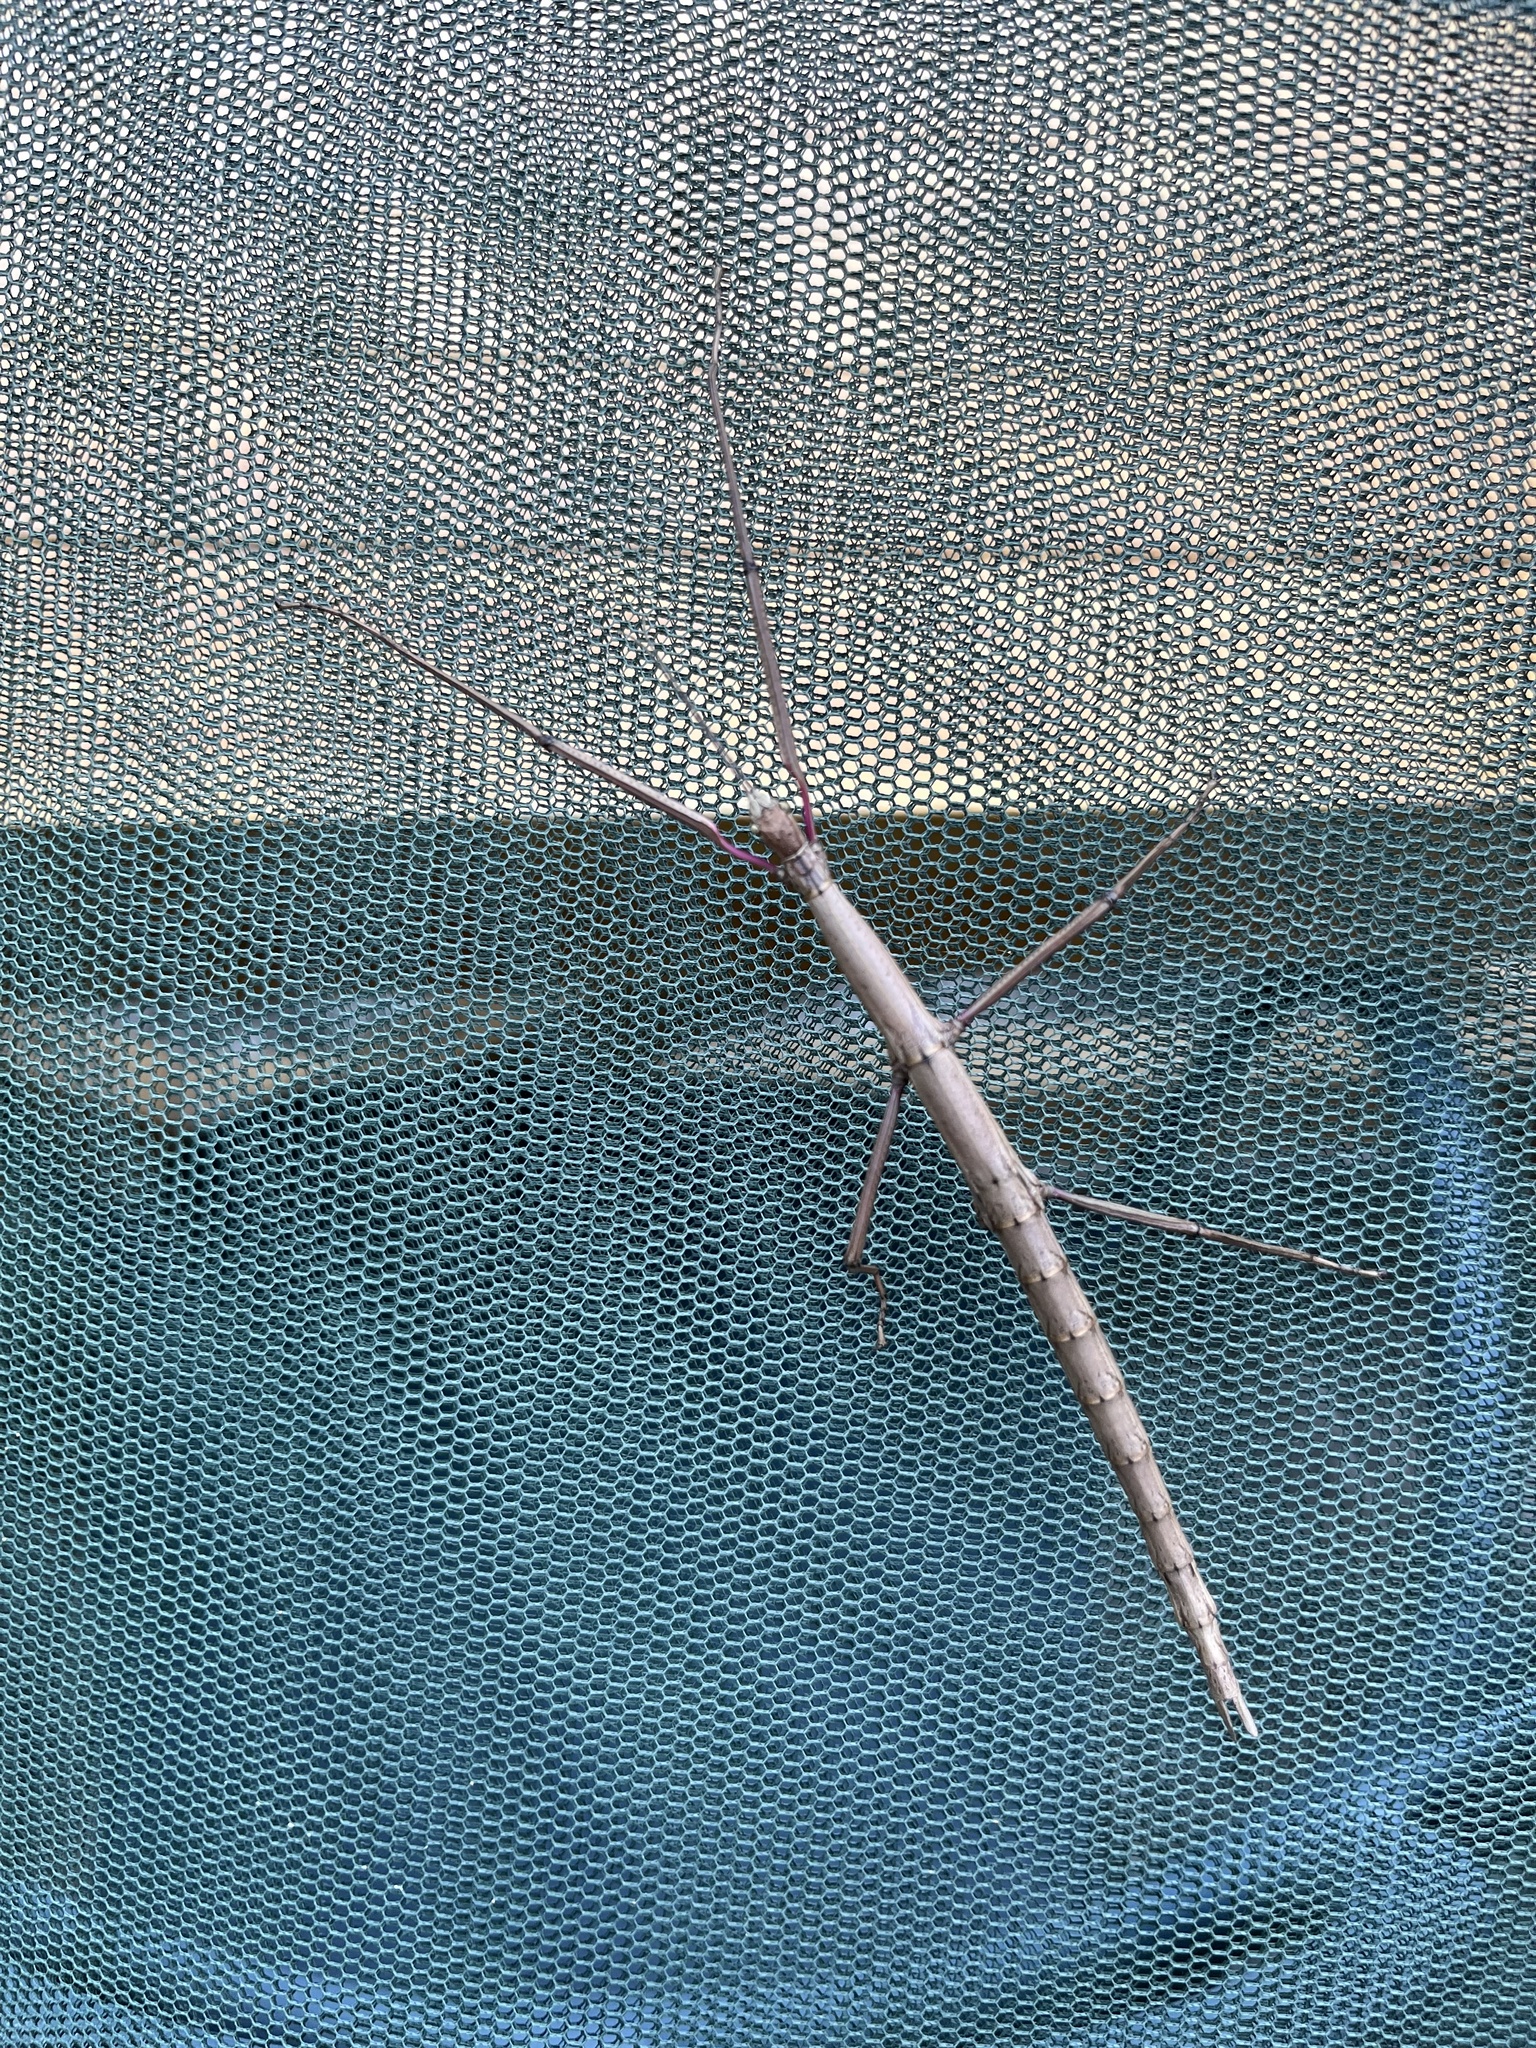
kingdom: Animalia
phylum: Arthropoda
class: Insecta
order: Phasmida
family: Phasmatidae
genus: Acanthoxyla
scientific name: Acanthoxyla inermis
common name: Unarmed stick insect
